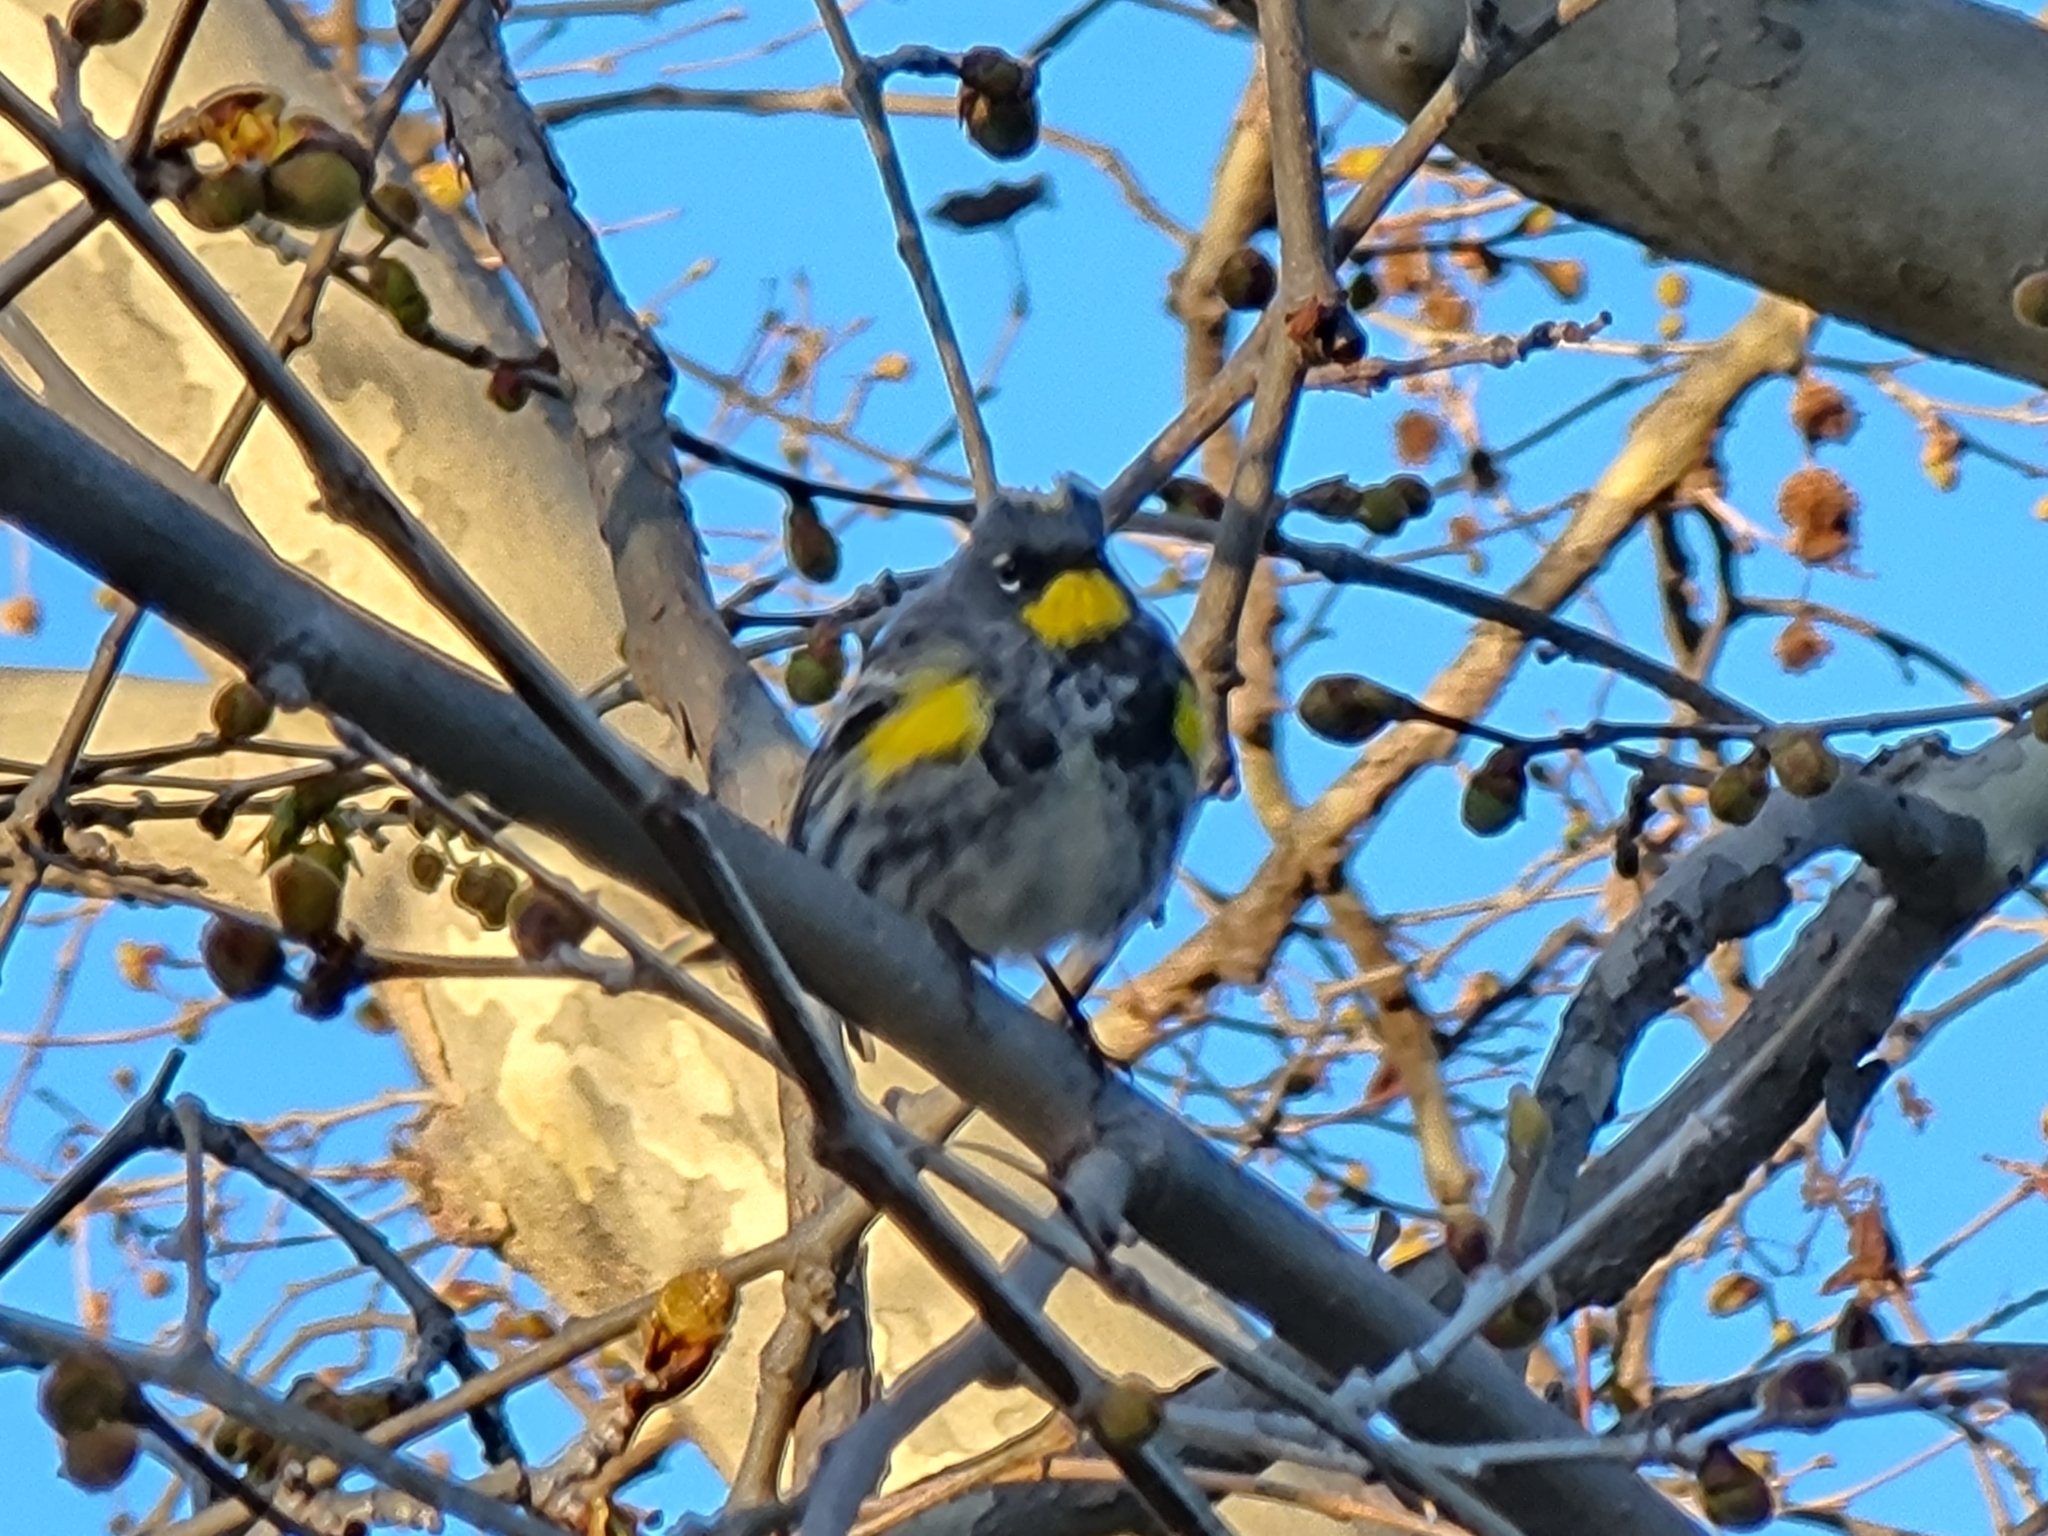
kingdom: Animalia
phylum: Chordata
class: Aves
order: Passeriformes
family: Parulidae
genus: Setophaga
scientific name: Setophaga coronata
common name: Myrtle warbler
